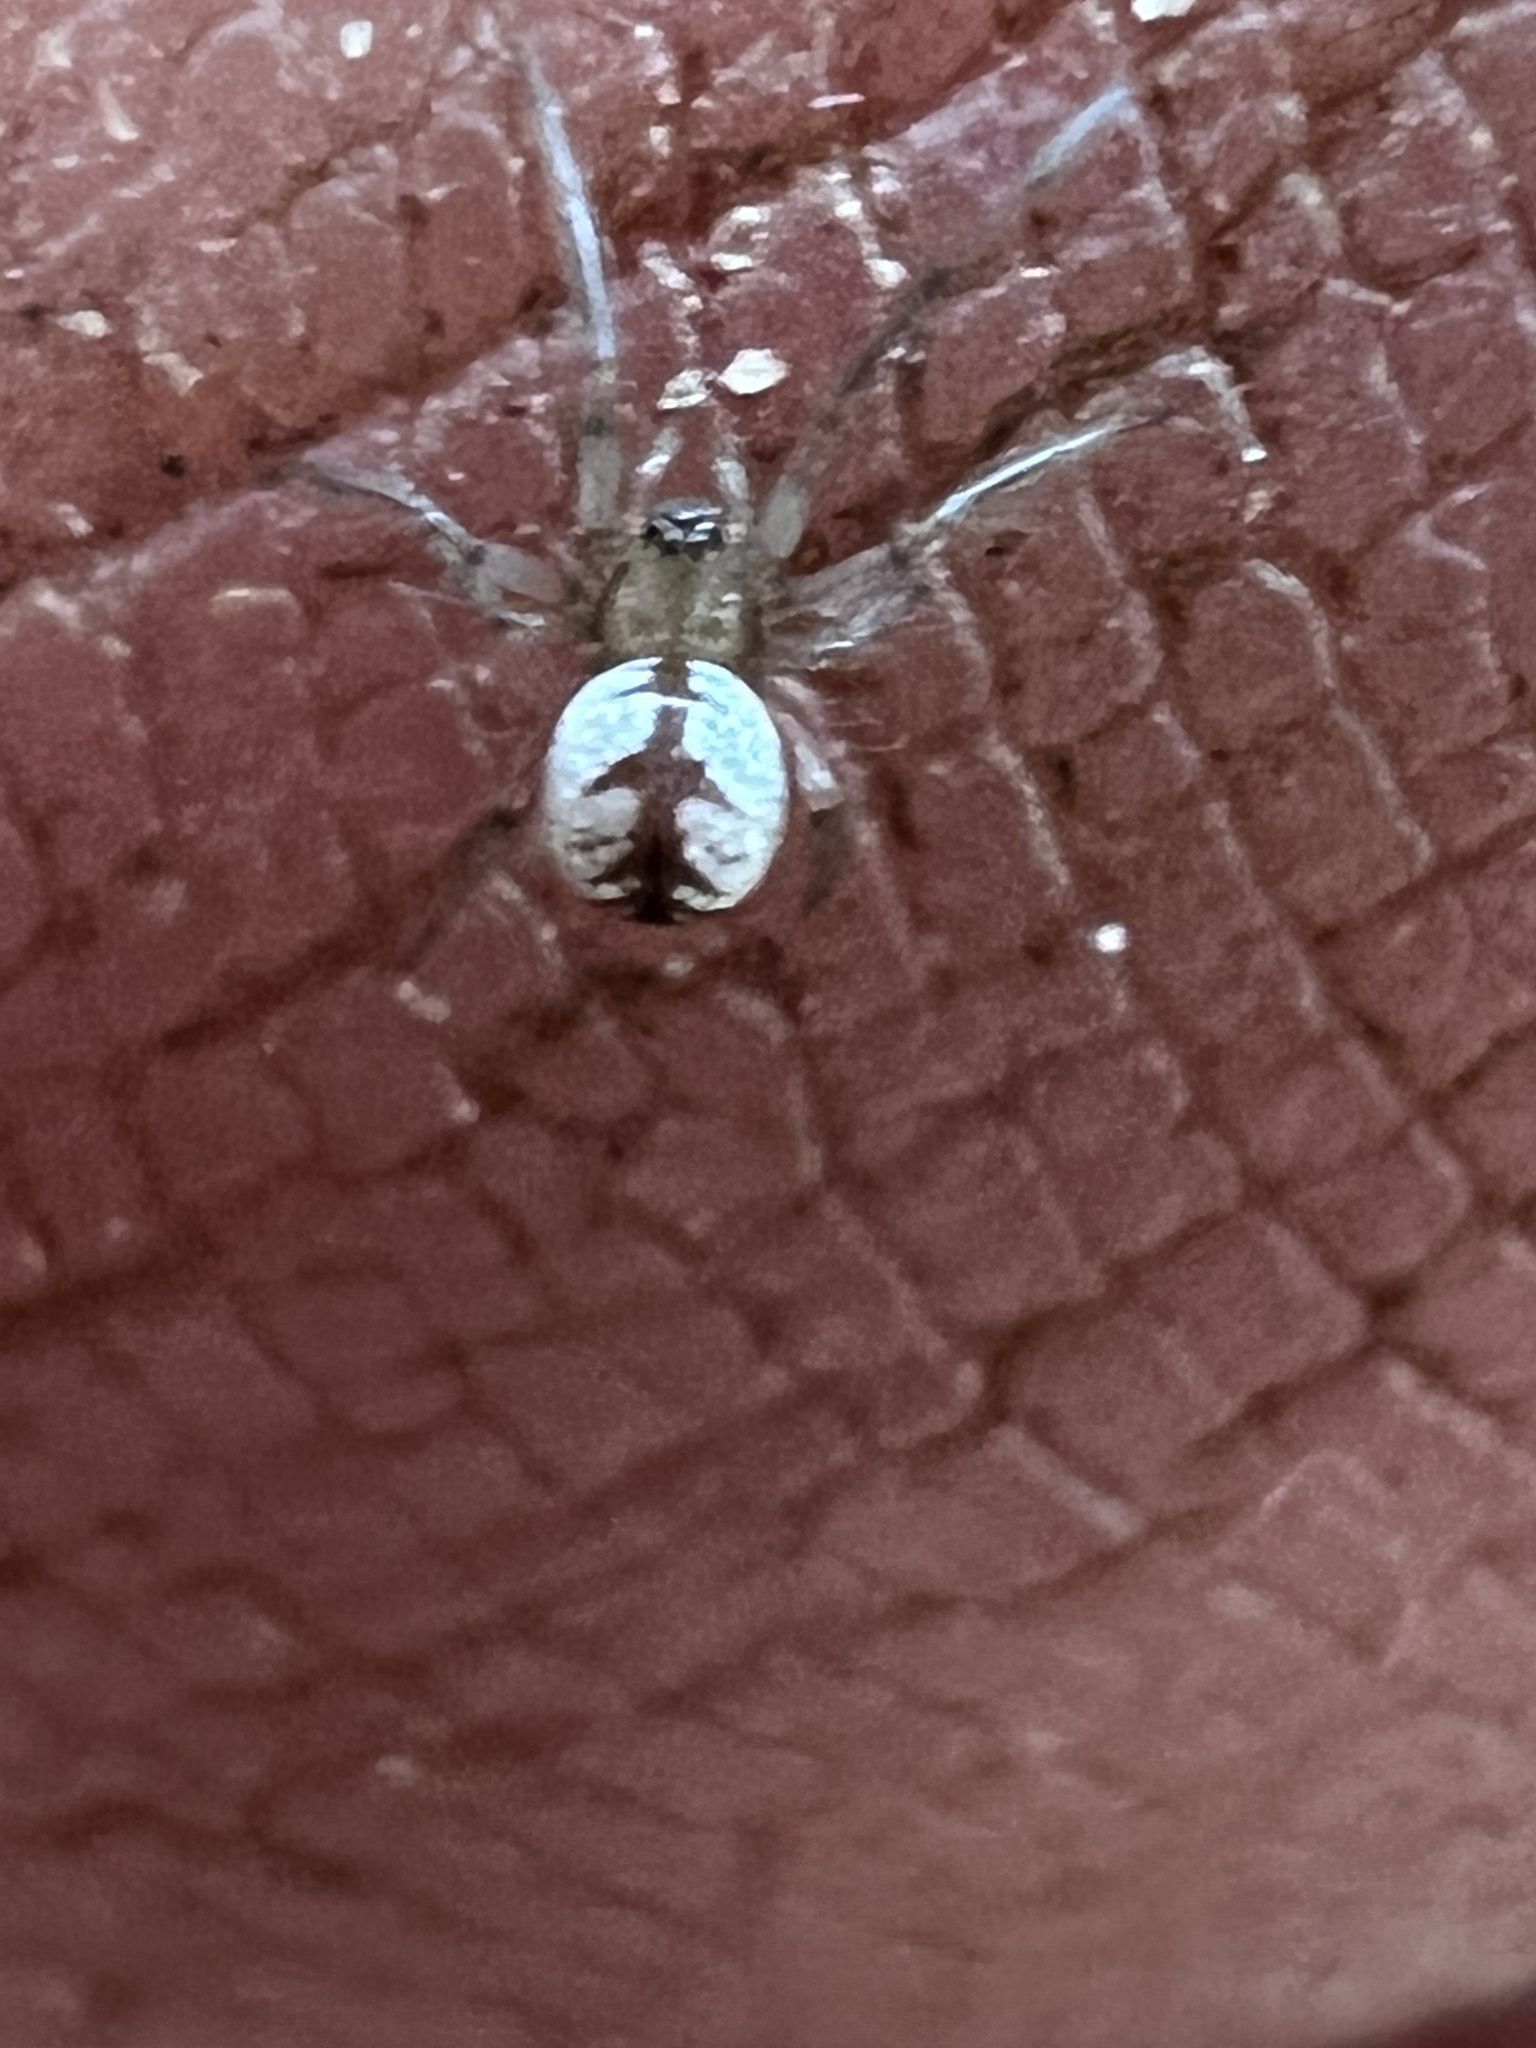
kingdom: Animalia
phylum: Arthropoda
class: Arachnida
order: Araneae
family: Tetragnathidae
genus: Leucauge
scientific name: Leucauge venusta
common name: Longjawed orb weavers
